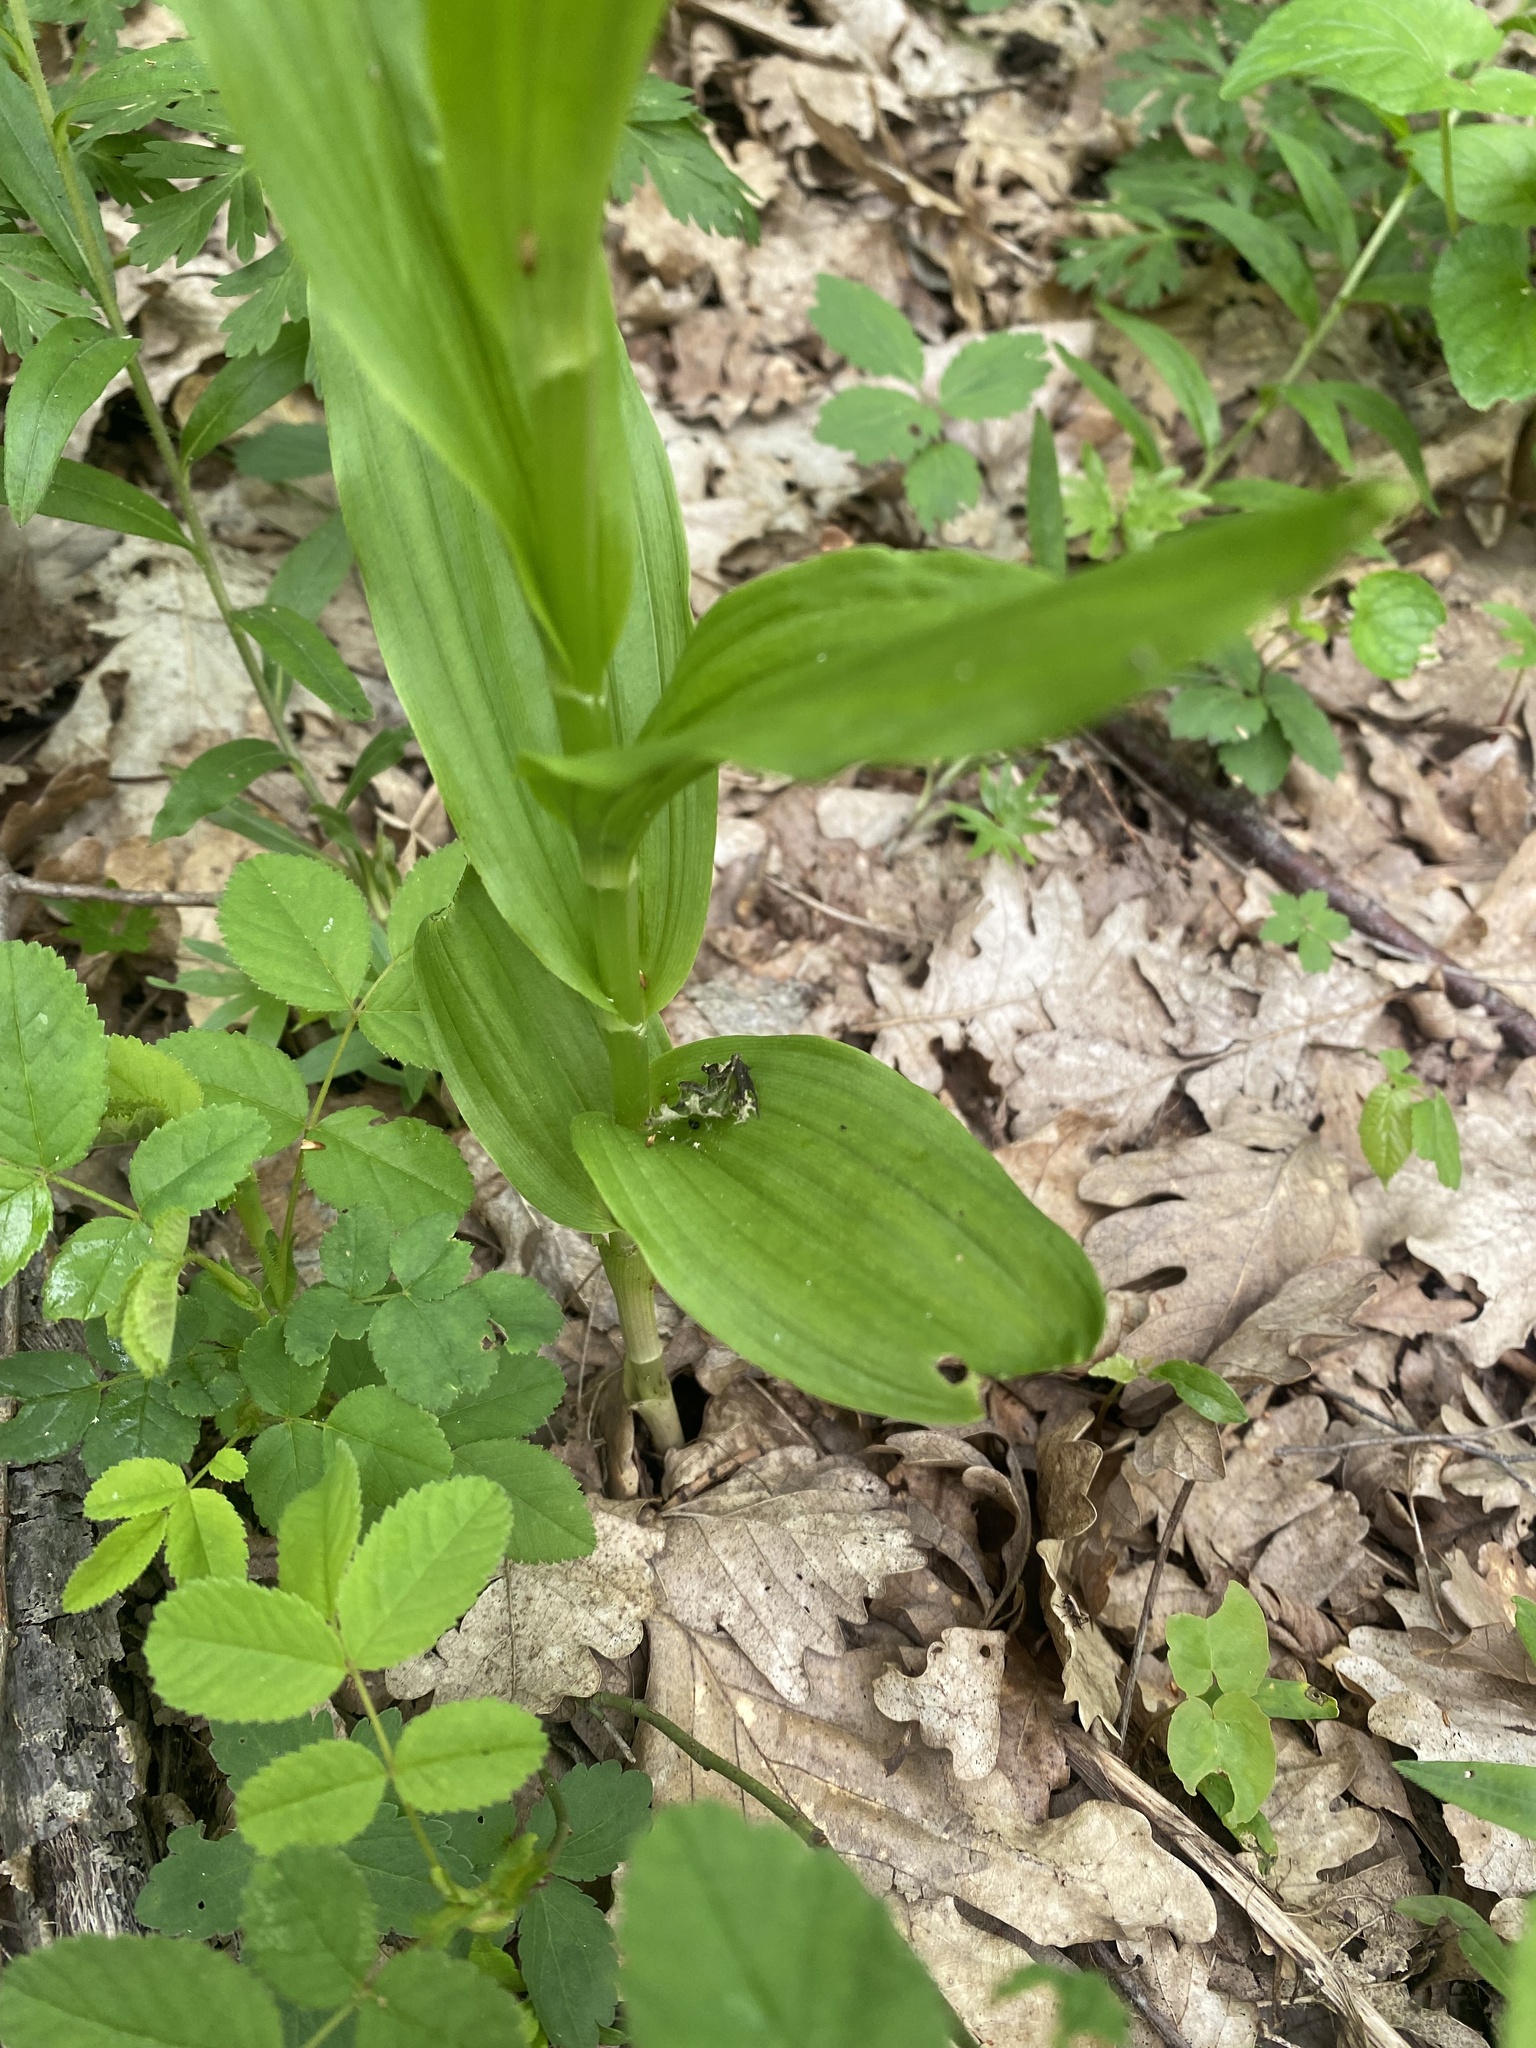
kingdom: Plantae
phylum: Tracheophyta
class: Liliopsida
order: Asparagales
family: Orchidaceae
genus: Cephalanthera
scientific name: Cephalanthera longifolia
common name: Narrow-leaved helleborine
